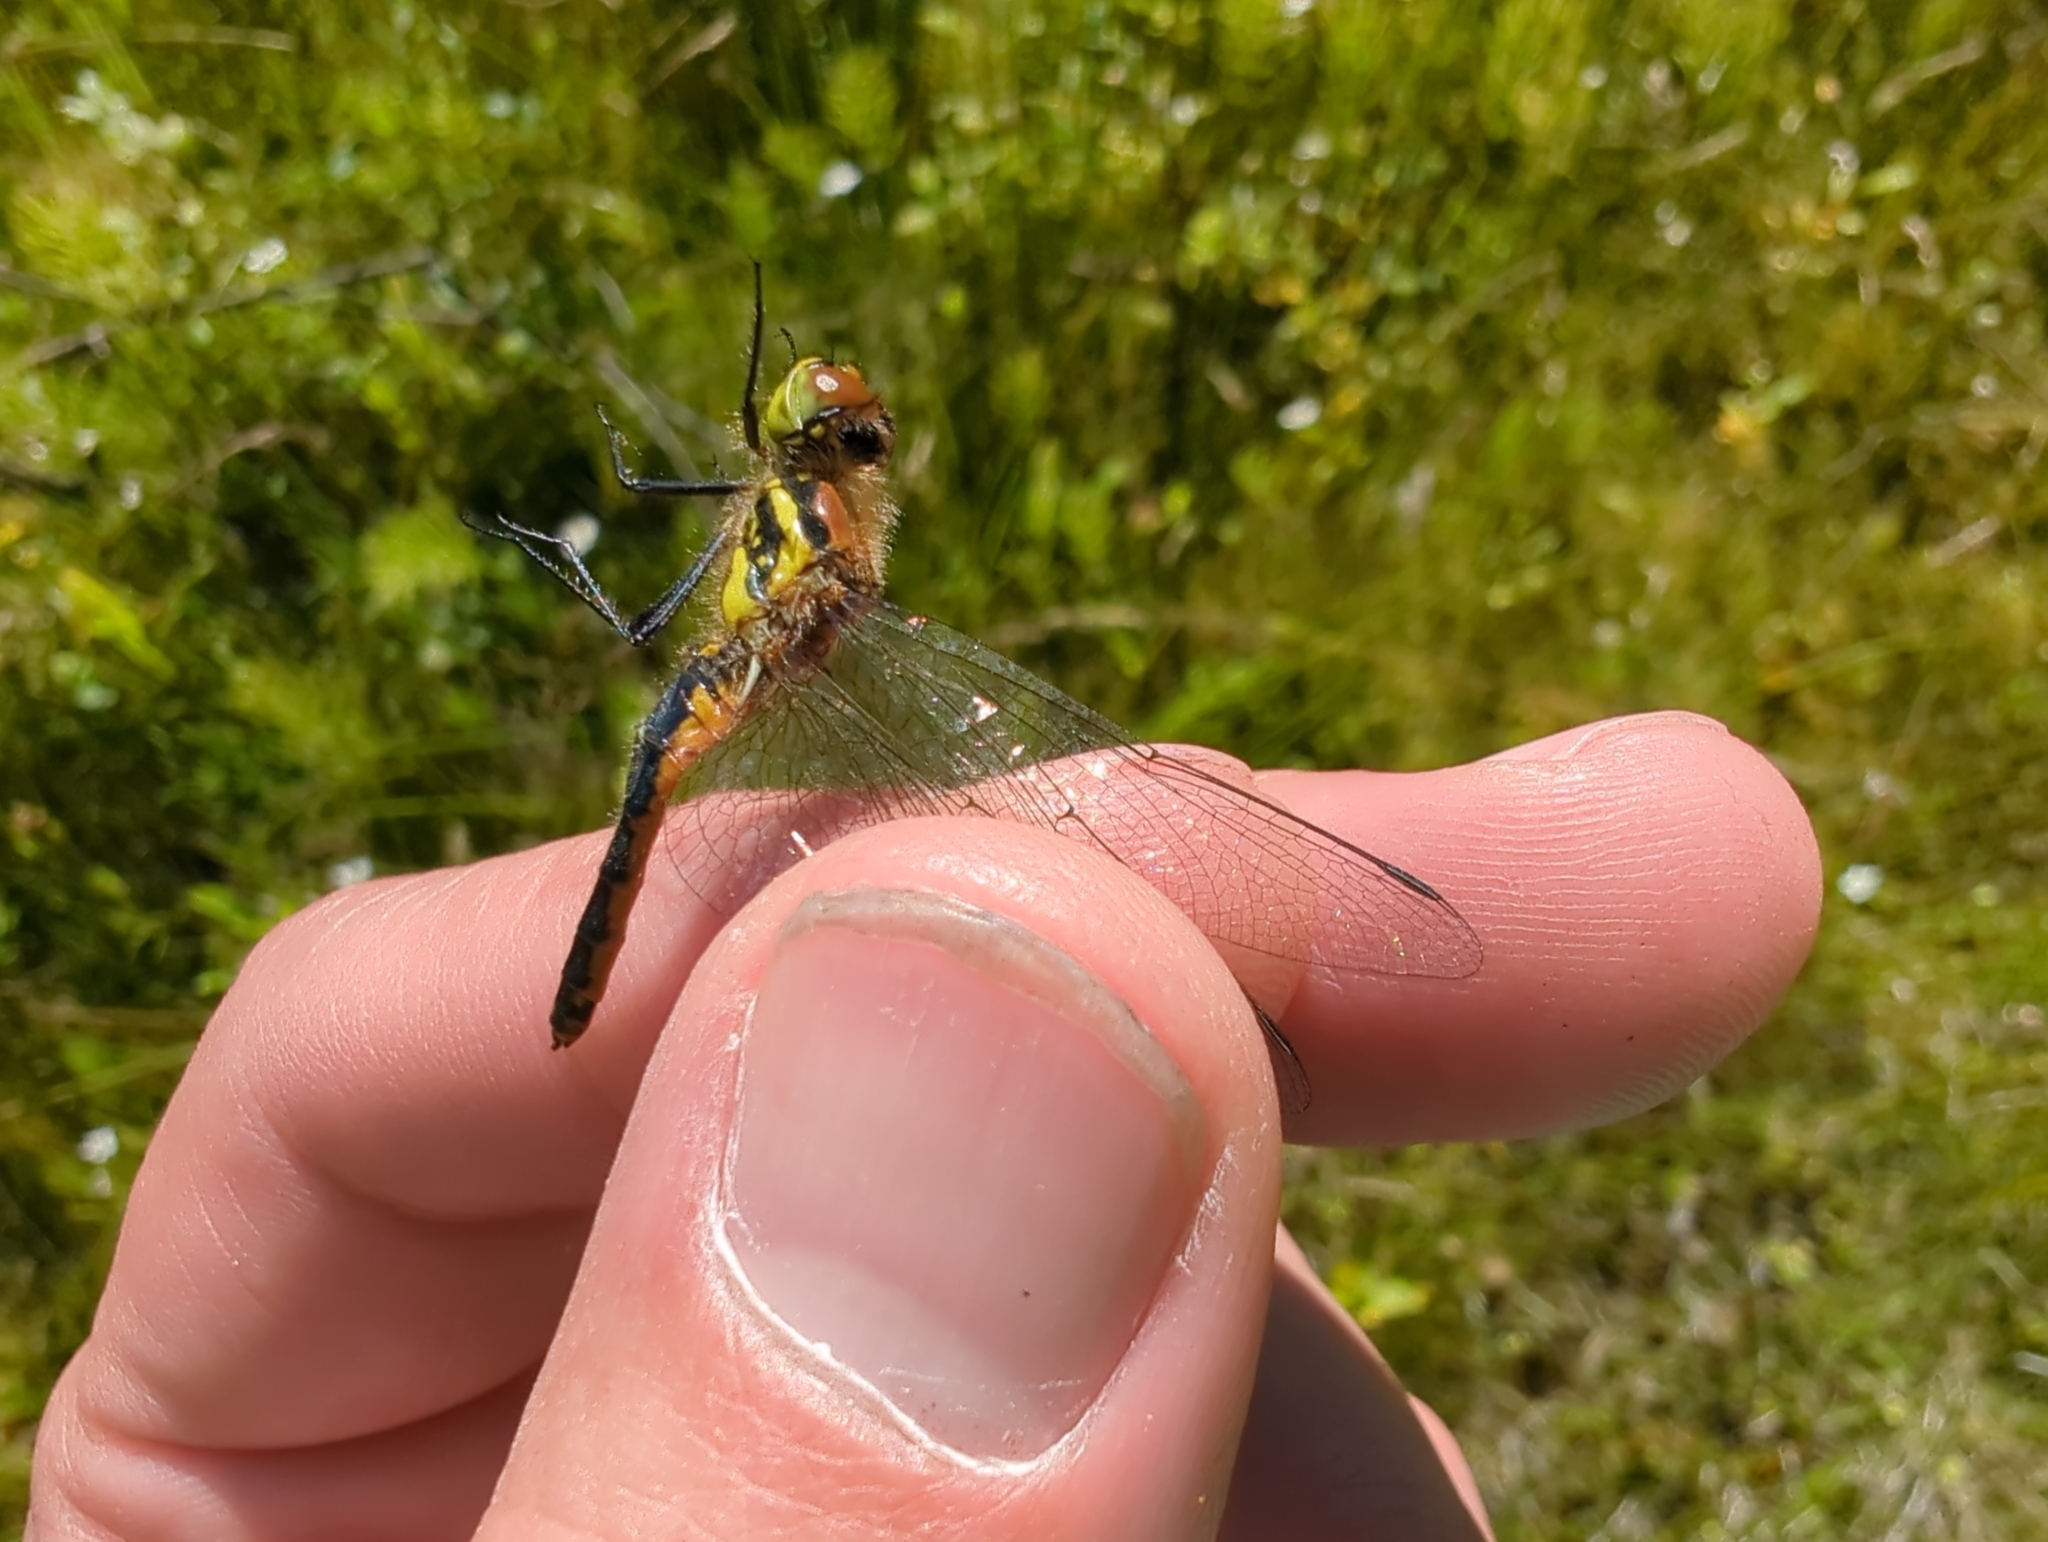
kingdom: Animalia
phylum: Arthropoda
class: Insecta
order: Odonata
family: Libellulidae
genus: Sympetrum
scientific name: Sympetrum danae
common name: Black darter
